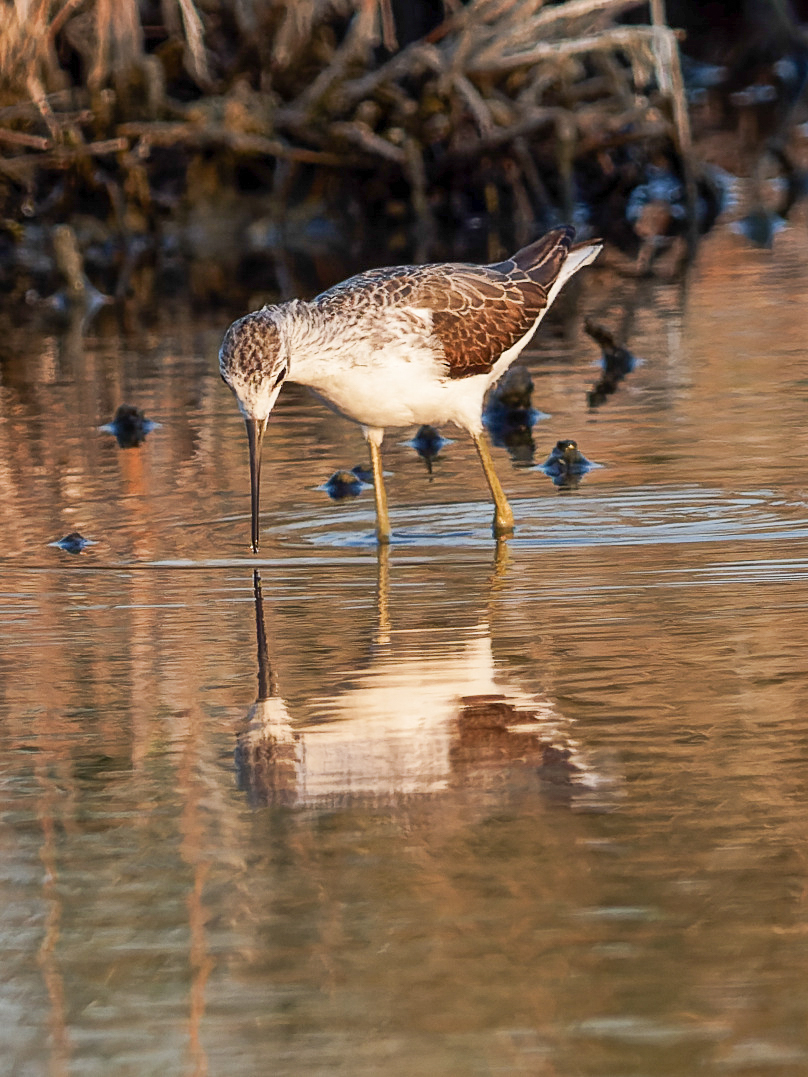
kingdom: Animalia
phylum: Chordata
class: Aves
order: Charadriiformes
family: Scolopacidae
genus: Tringa
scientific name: Tringa stagnatilis
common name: Marsh sandpiper
